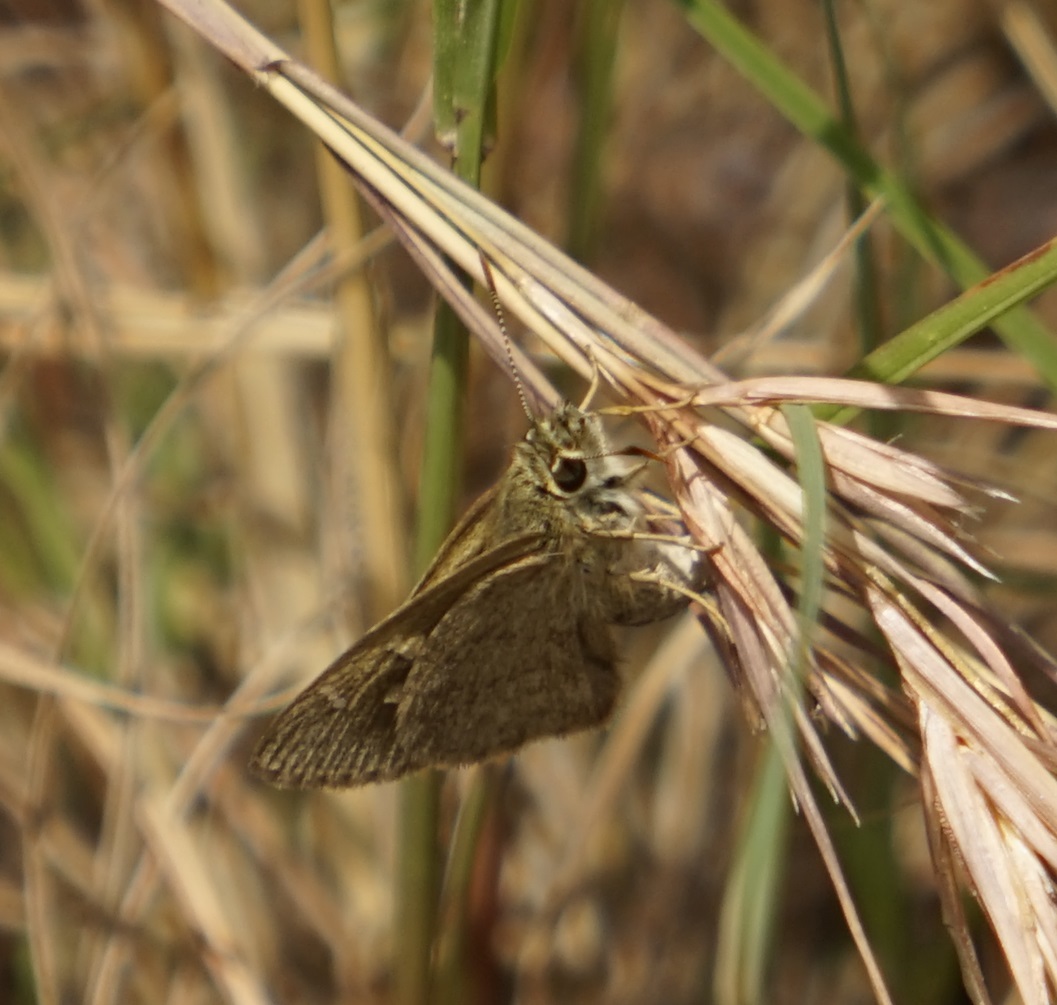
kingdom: Animalia
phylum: Arthropoda
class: Insecta
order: Lepidoptera
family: Hesperiidae
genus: Toxidia
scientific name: Toxidia
